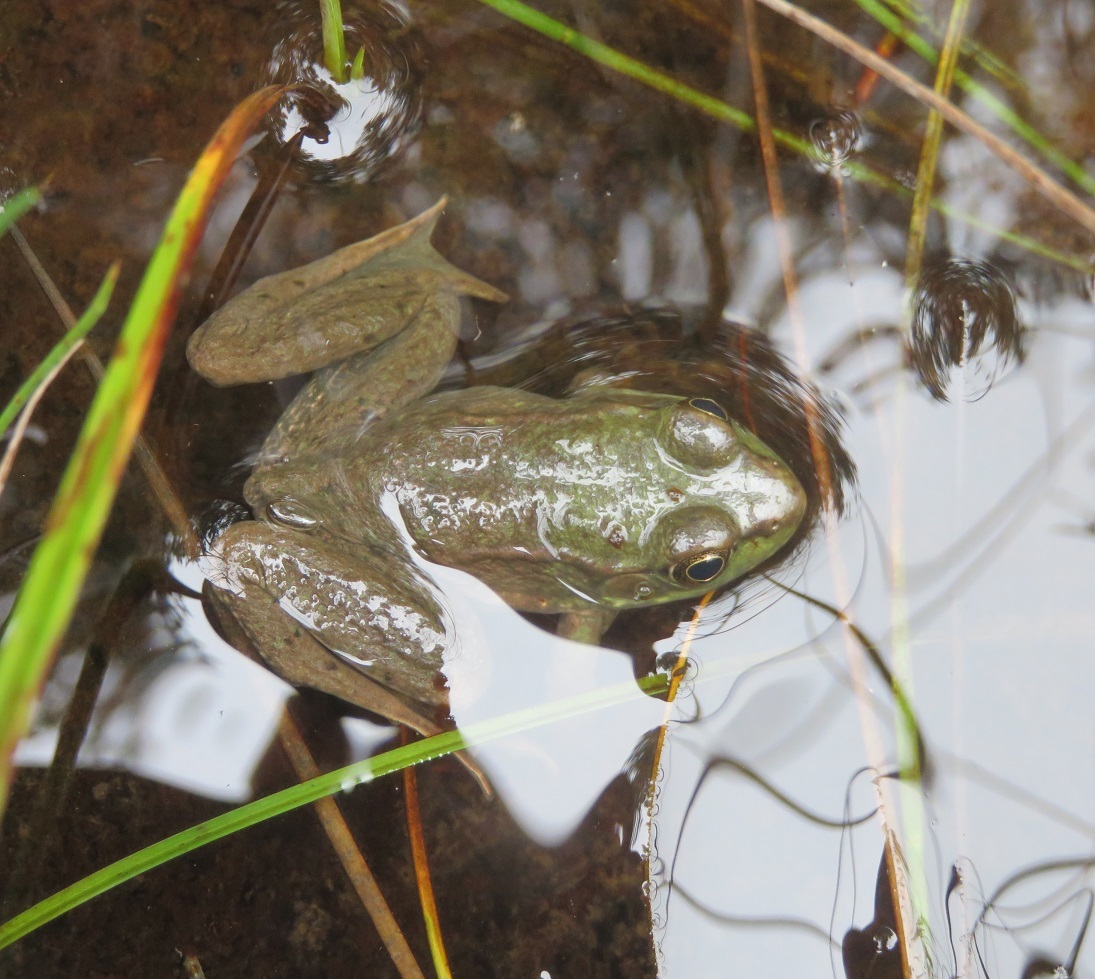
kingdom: Animalia
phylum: Chordata
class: Amphibia
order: Anura
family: Ranidae
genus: Lithobates
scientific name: Lithobates clamitans
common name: Green frog
